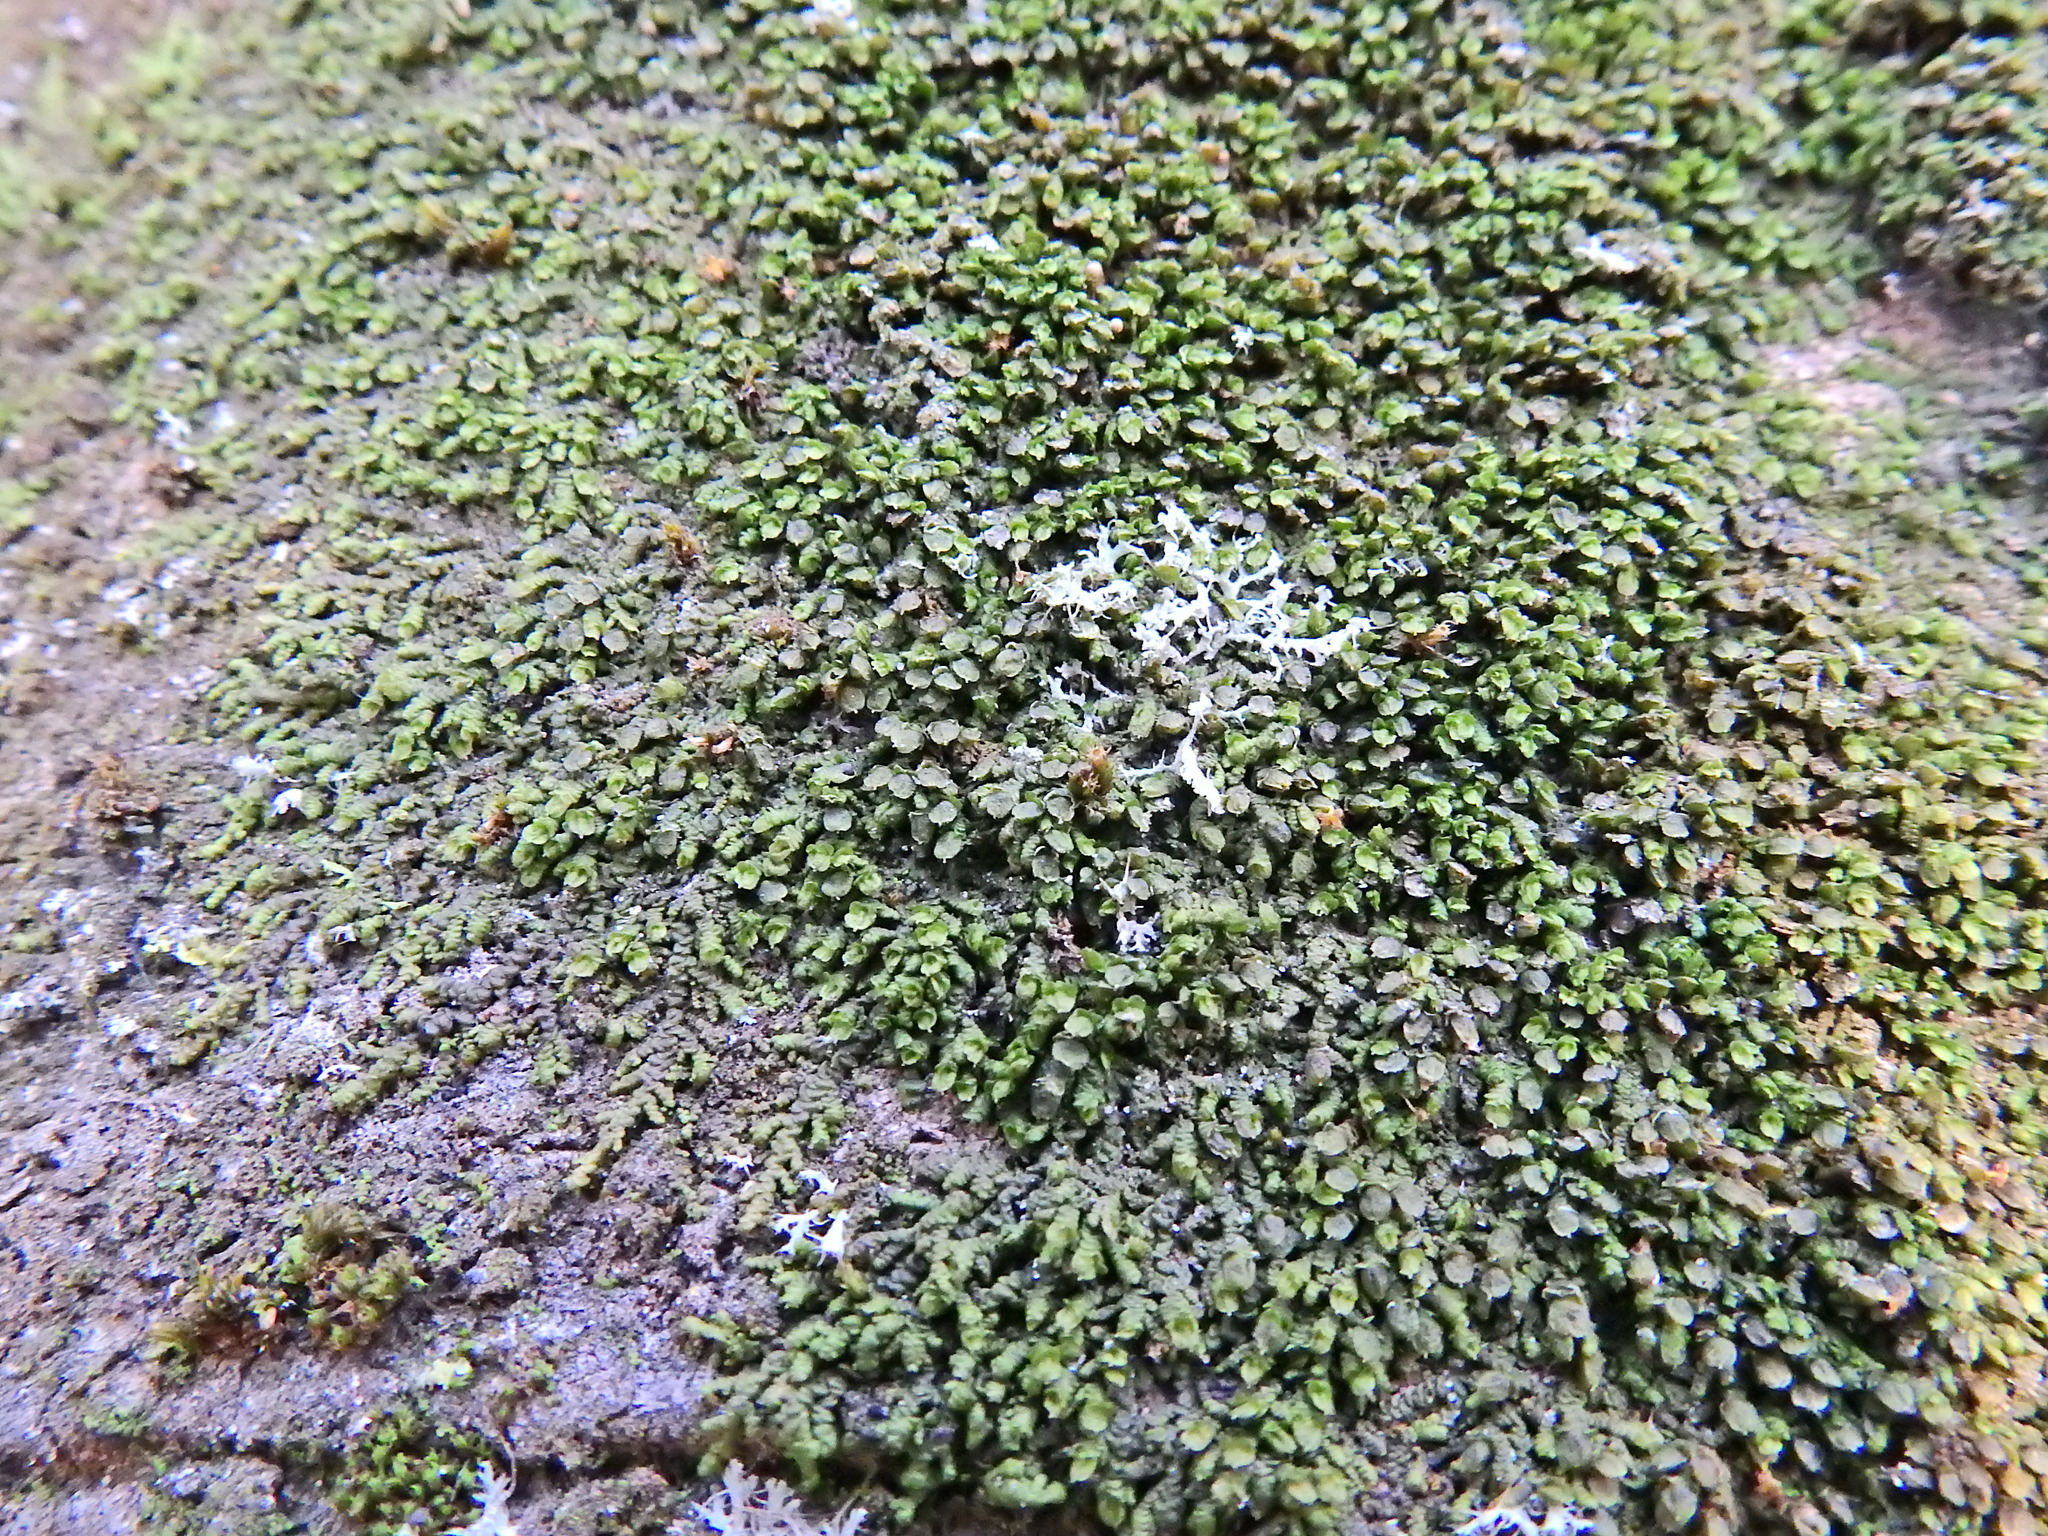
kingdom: Plantae
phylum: Marchantiophyta
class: Jungermanniopsida
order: Porellales
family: Frullaniaceae
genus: Frullania
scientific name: Frullania dilatata
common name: Dilated scalewort
